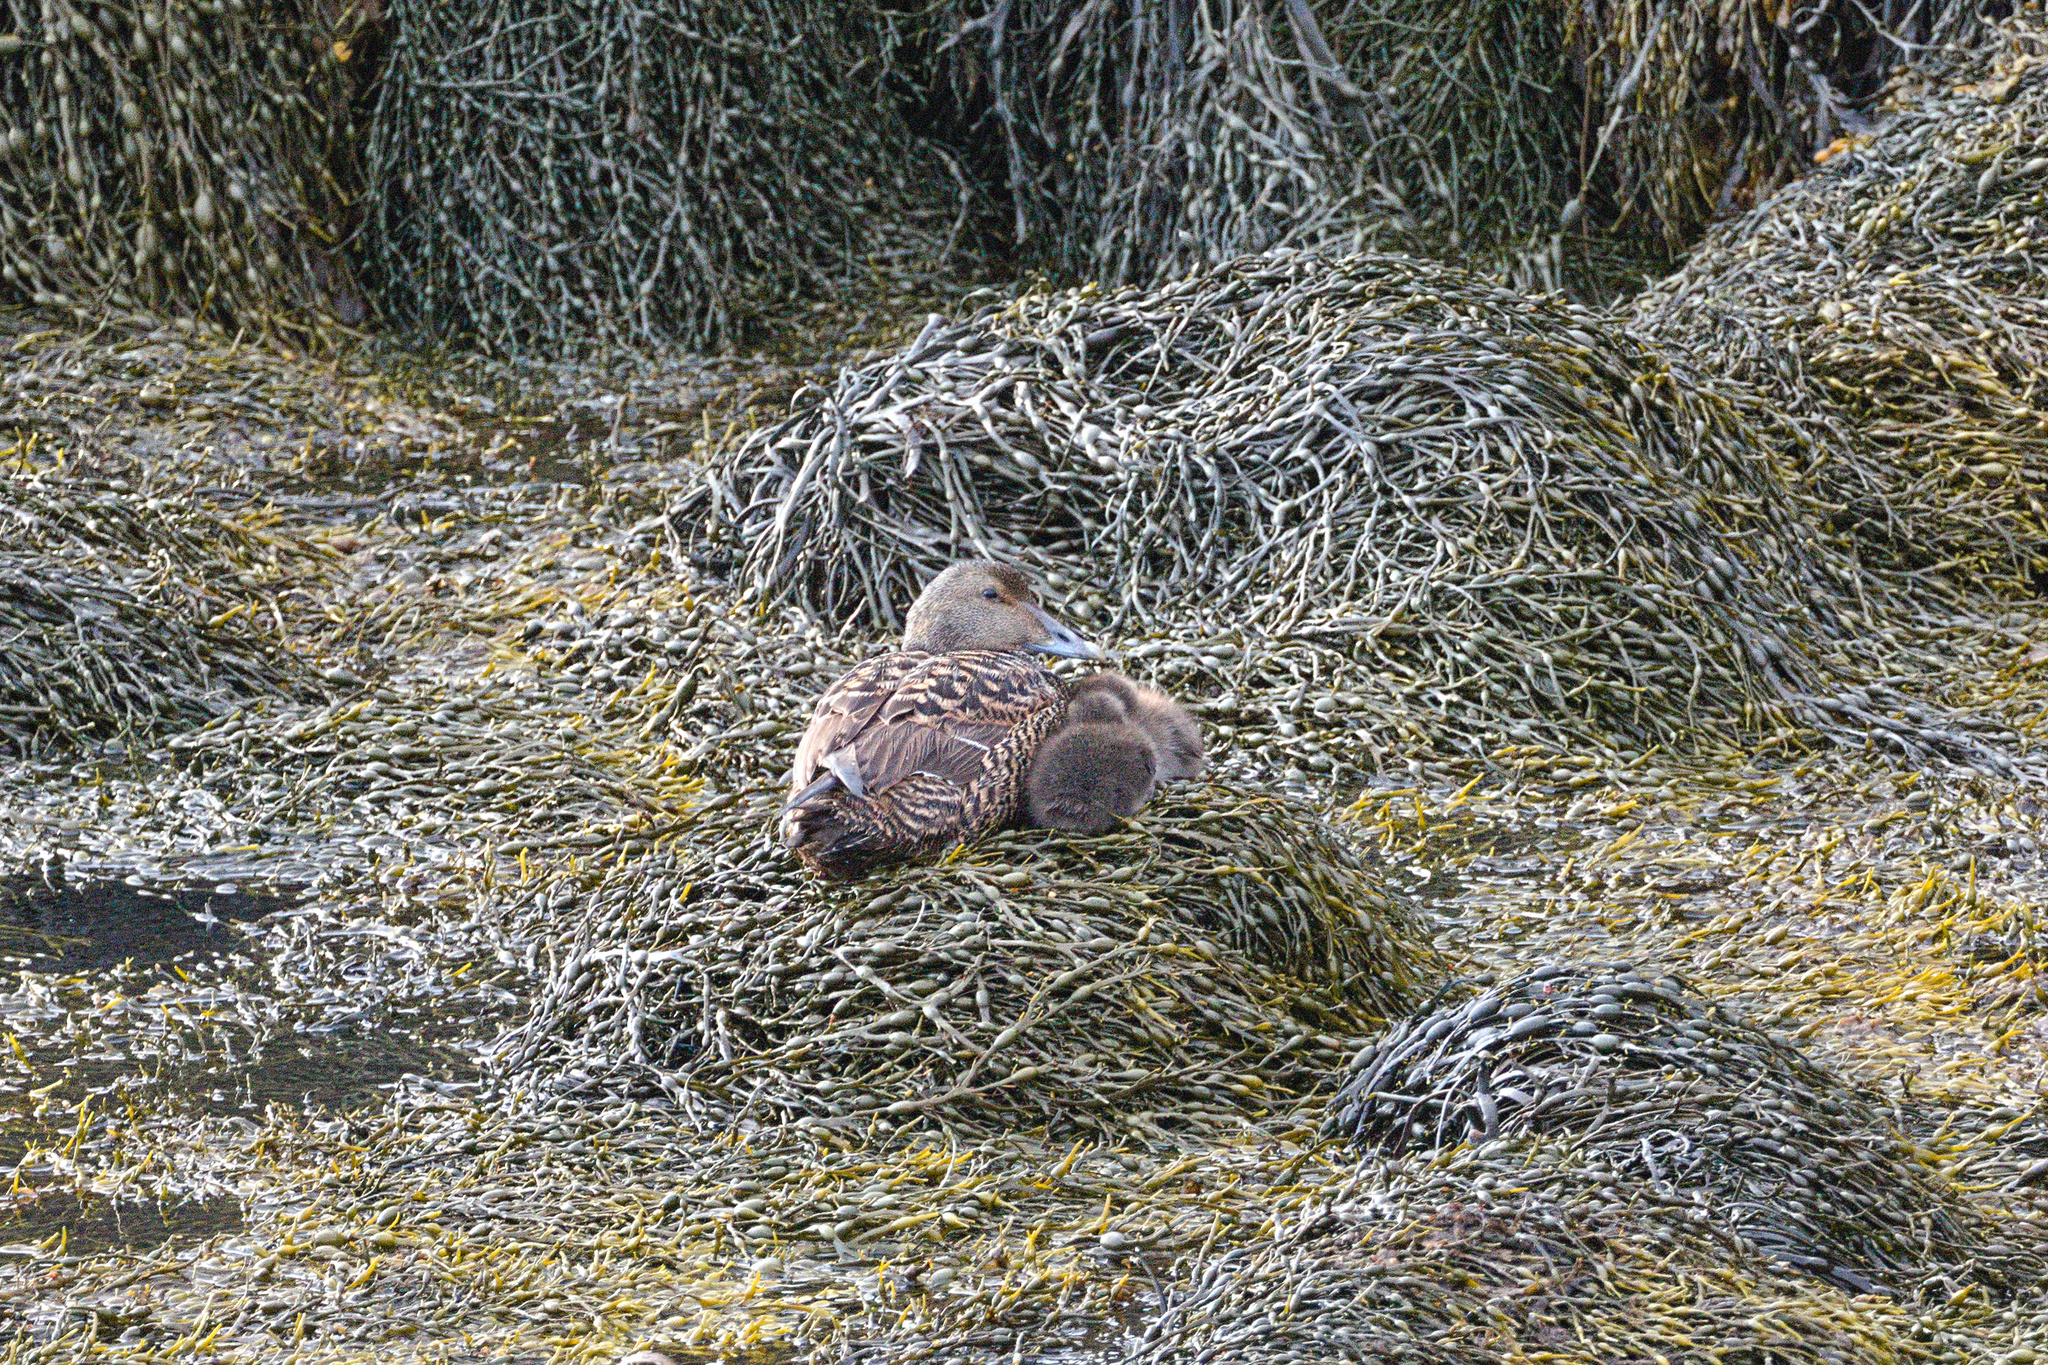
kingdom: Animalia
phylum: Chordata
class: Aves
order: Anseriformes
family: Anatidae
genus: Somateria
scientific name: Somateria mollissima
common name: Common eider
